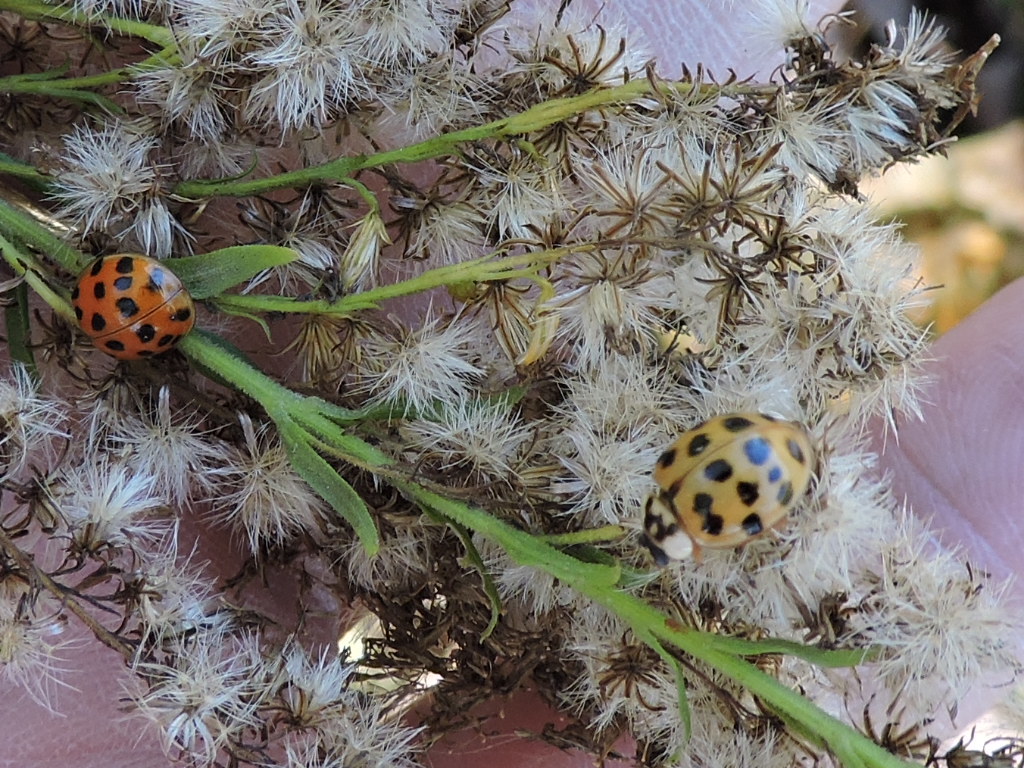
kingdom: Animalia
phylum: Arthropoda
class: Insecta
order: Coleoptera
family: Coccinellidae
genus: Harmonia
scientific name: Harmonia axyridis
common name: Harlequin ladybird
